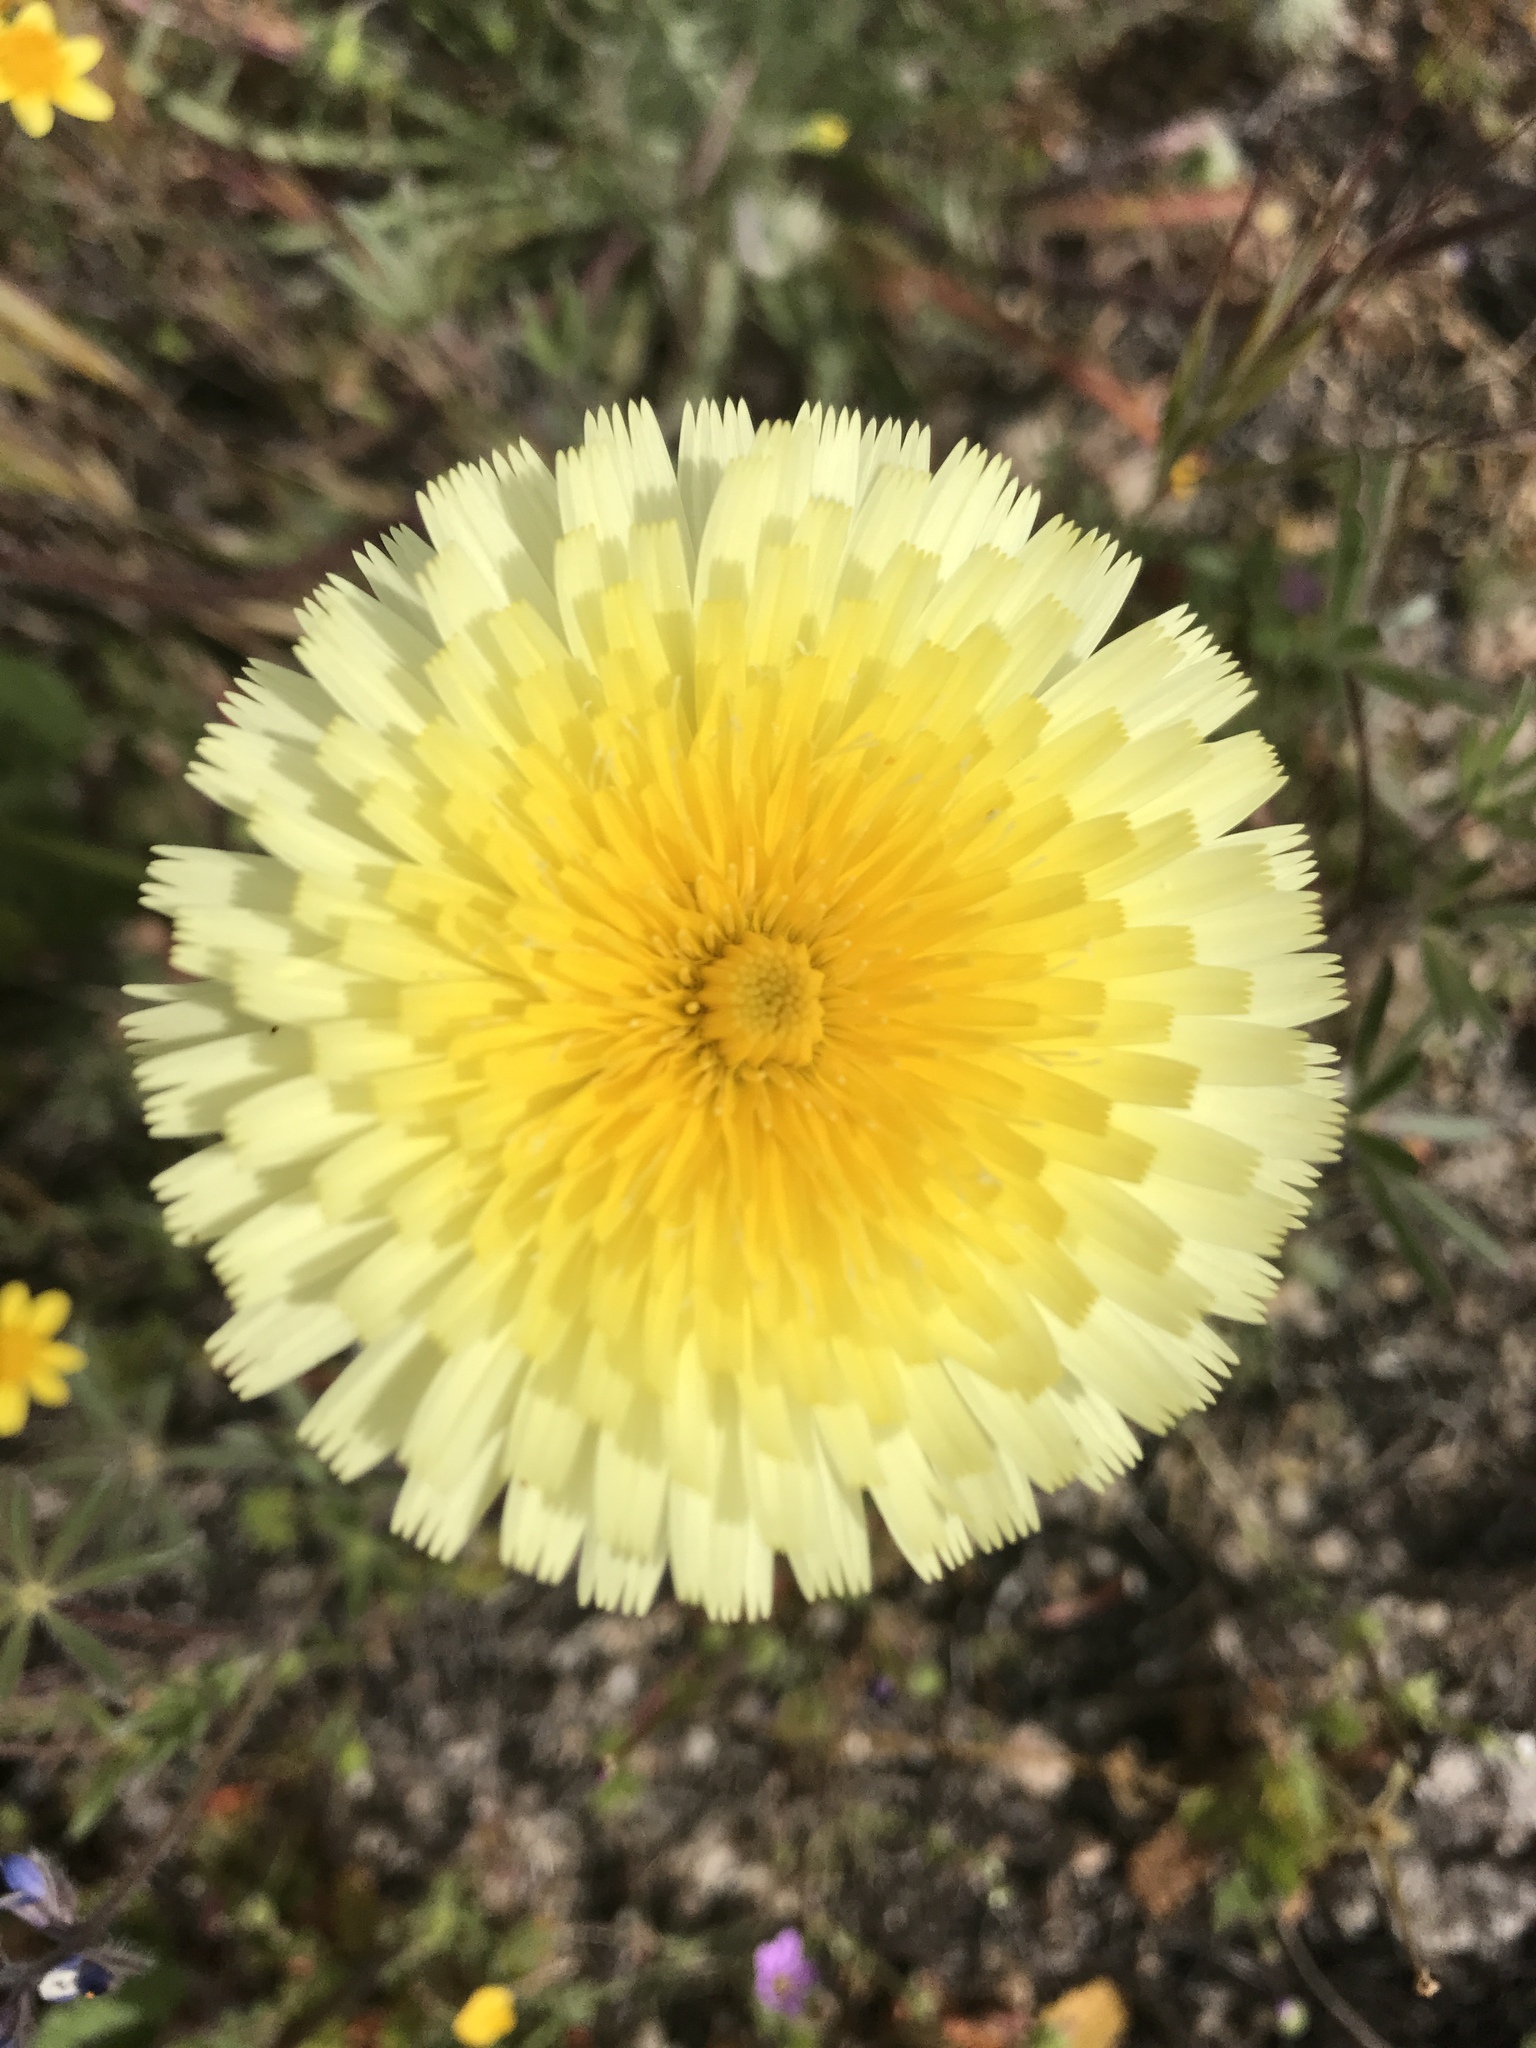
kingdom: Plantae
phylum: Tracheophyta
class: Magnoliopsida
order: Asterales
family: Asteraceae
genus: Malacothrix
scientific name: Malacothrix californica
